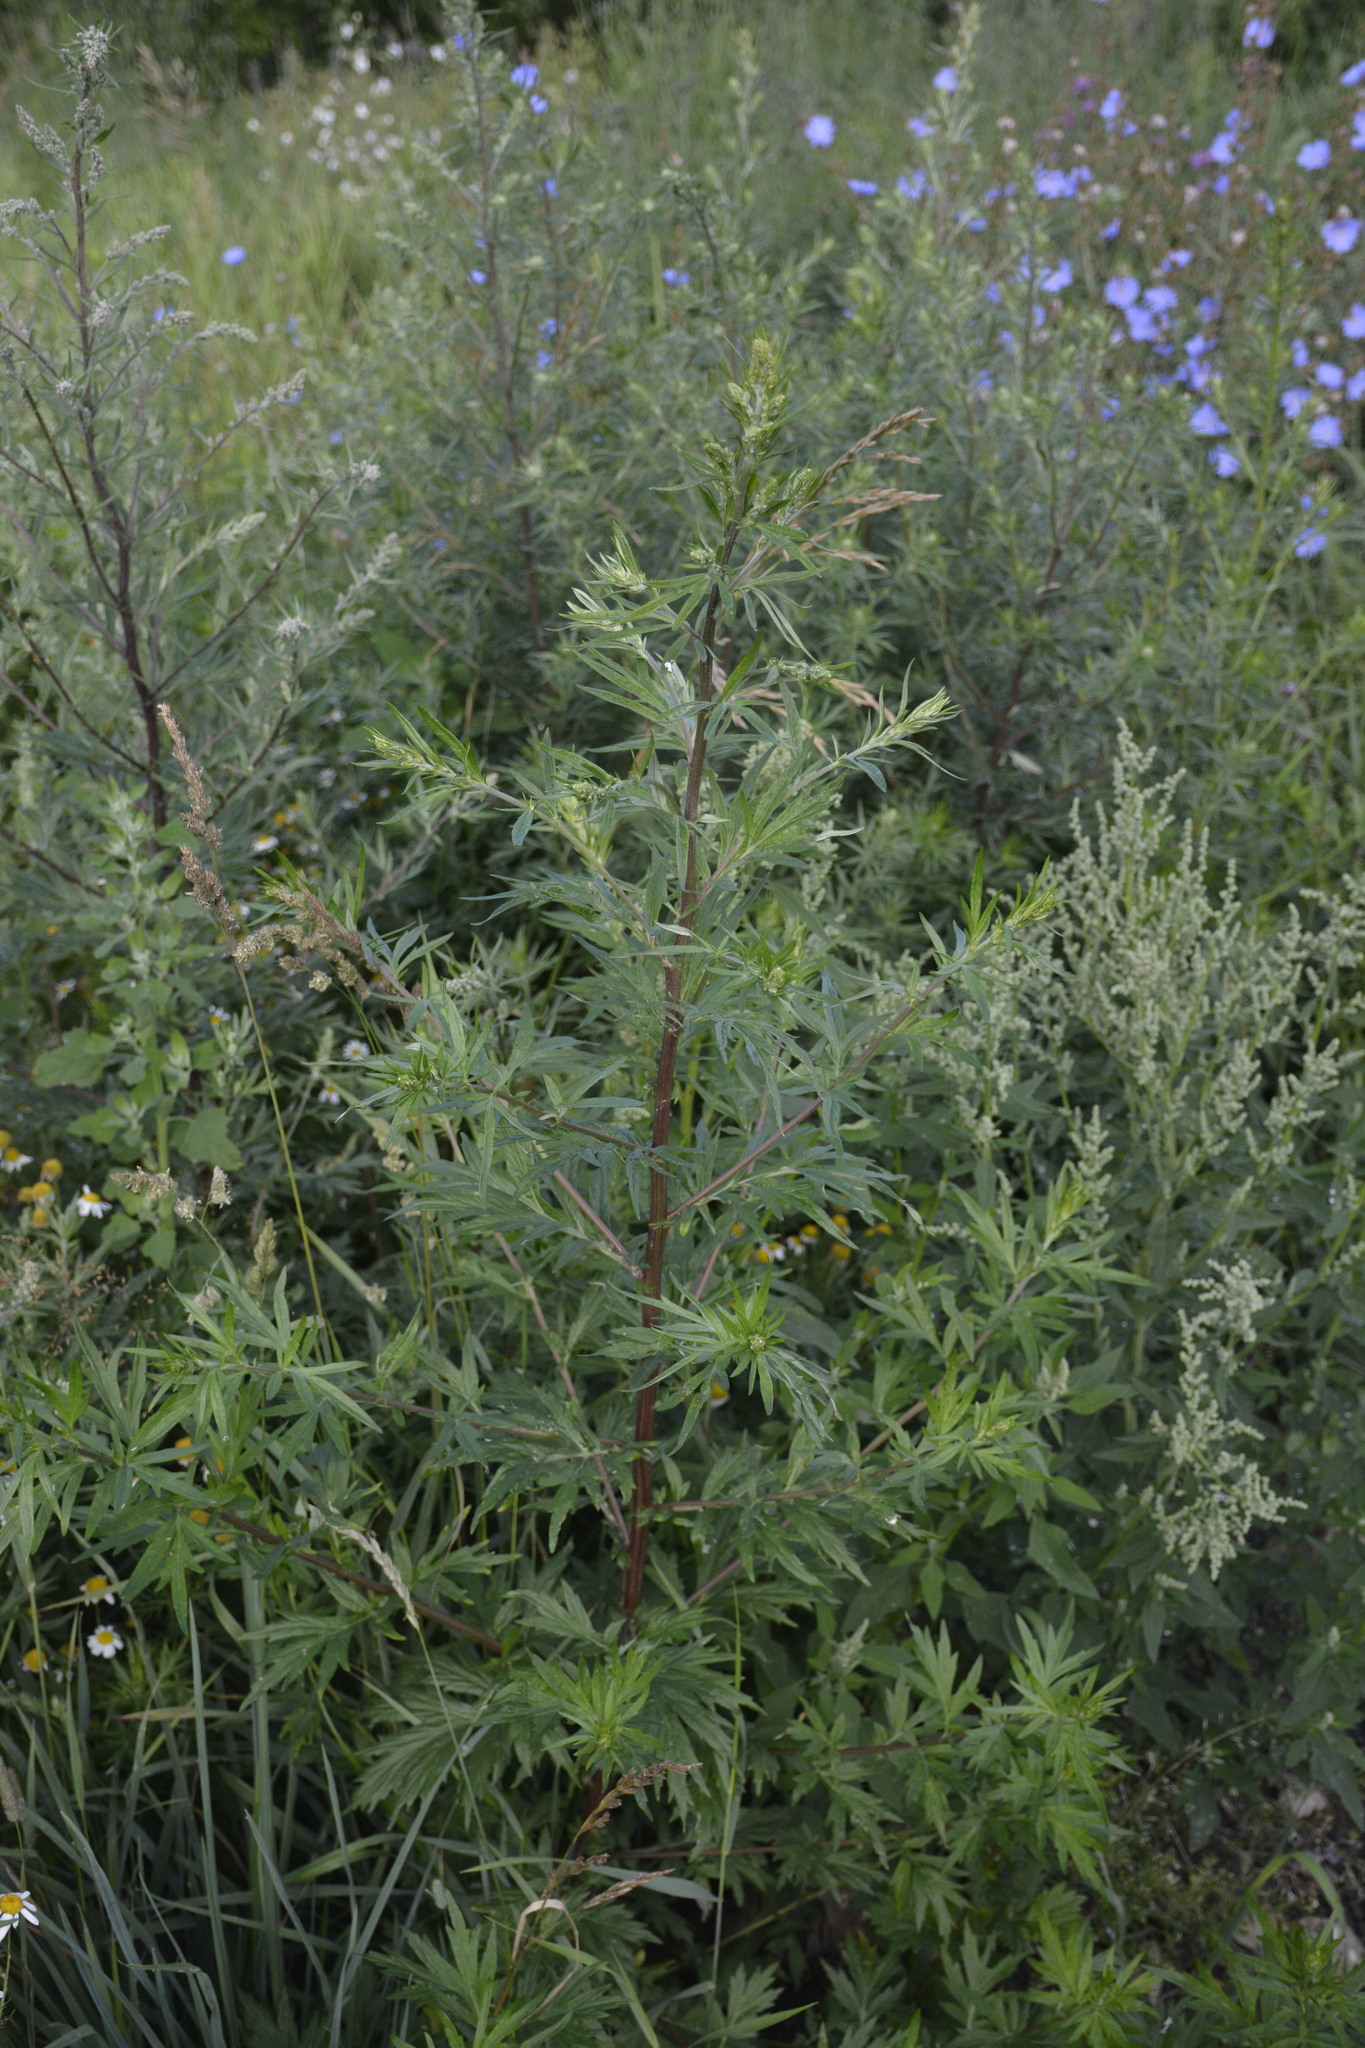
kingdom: Plantae
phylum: Tracheophyta
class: Magnoliopsida
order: Asterales
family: Asteraceae
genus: Artemisia
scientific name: Artemisia vulgaris
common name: Mugwort
